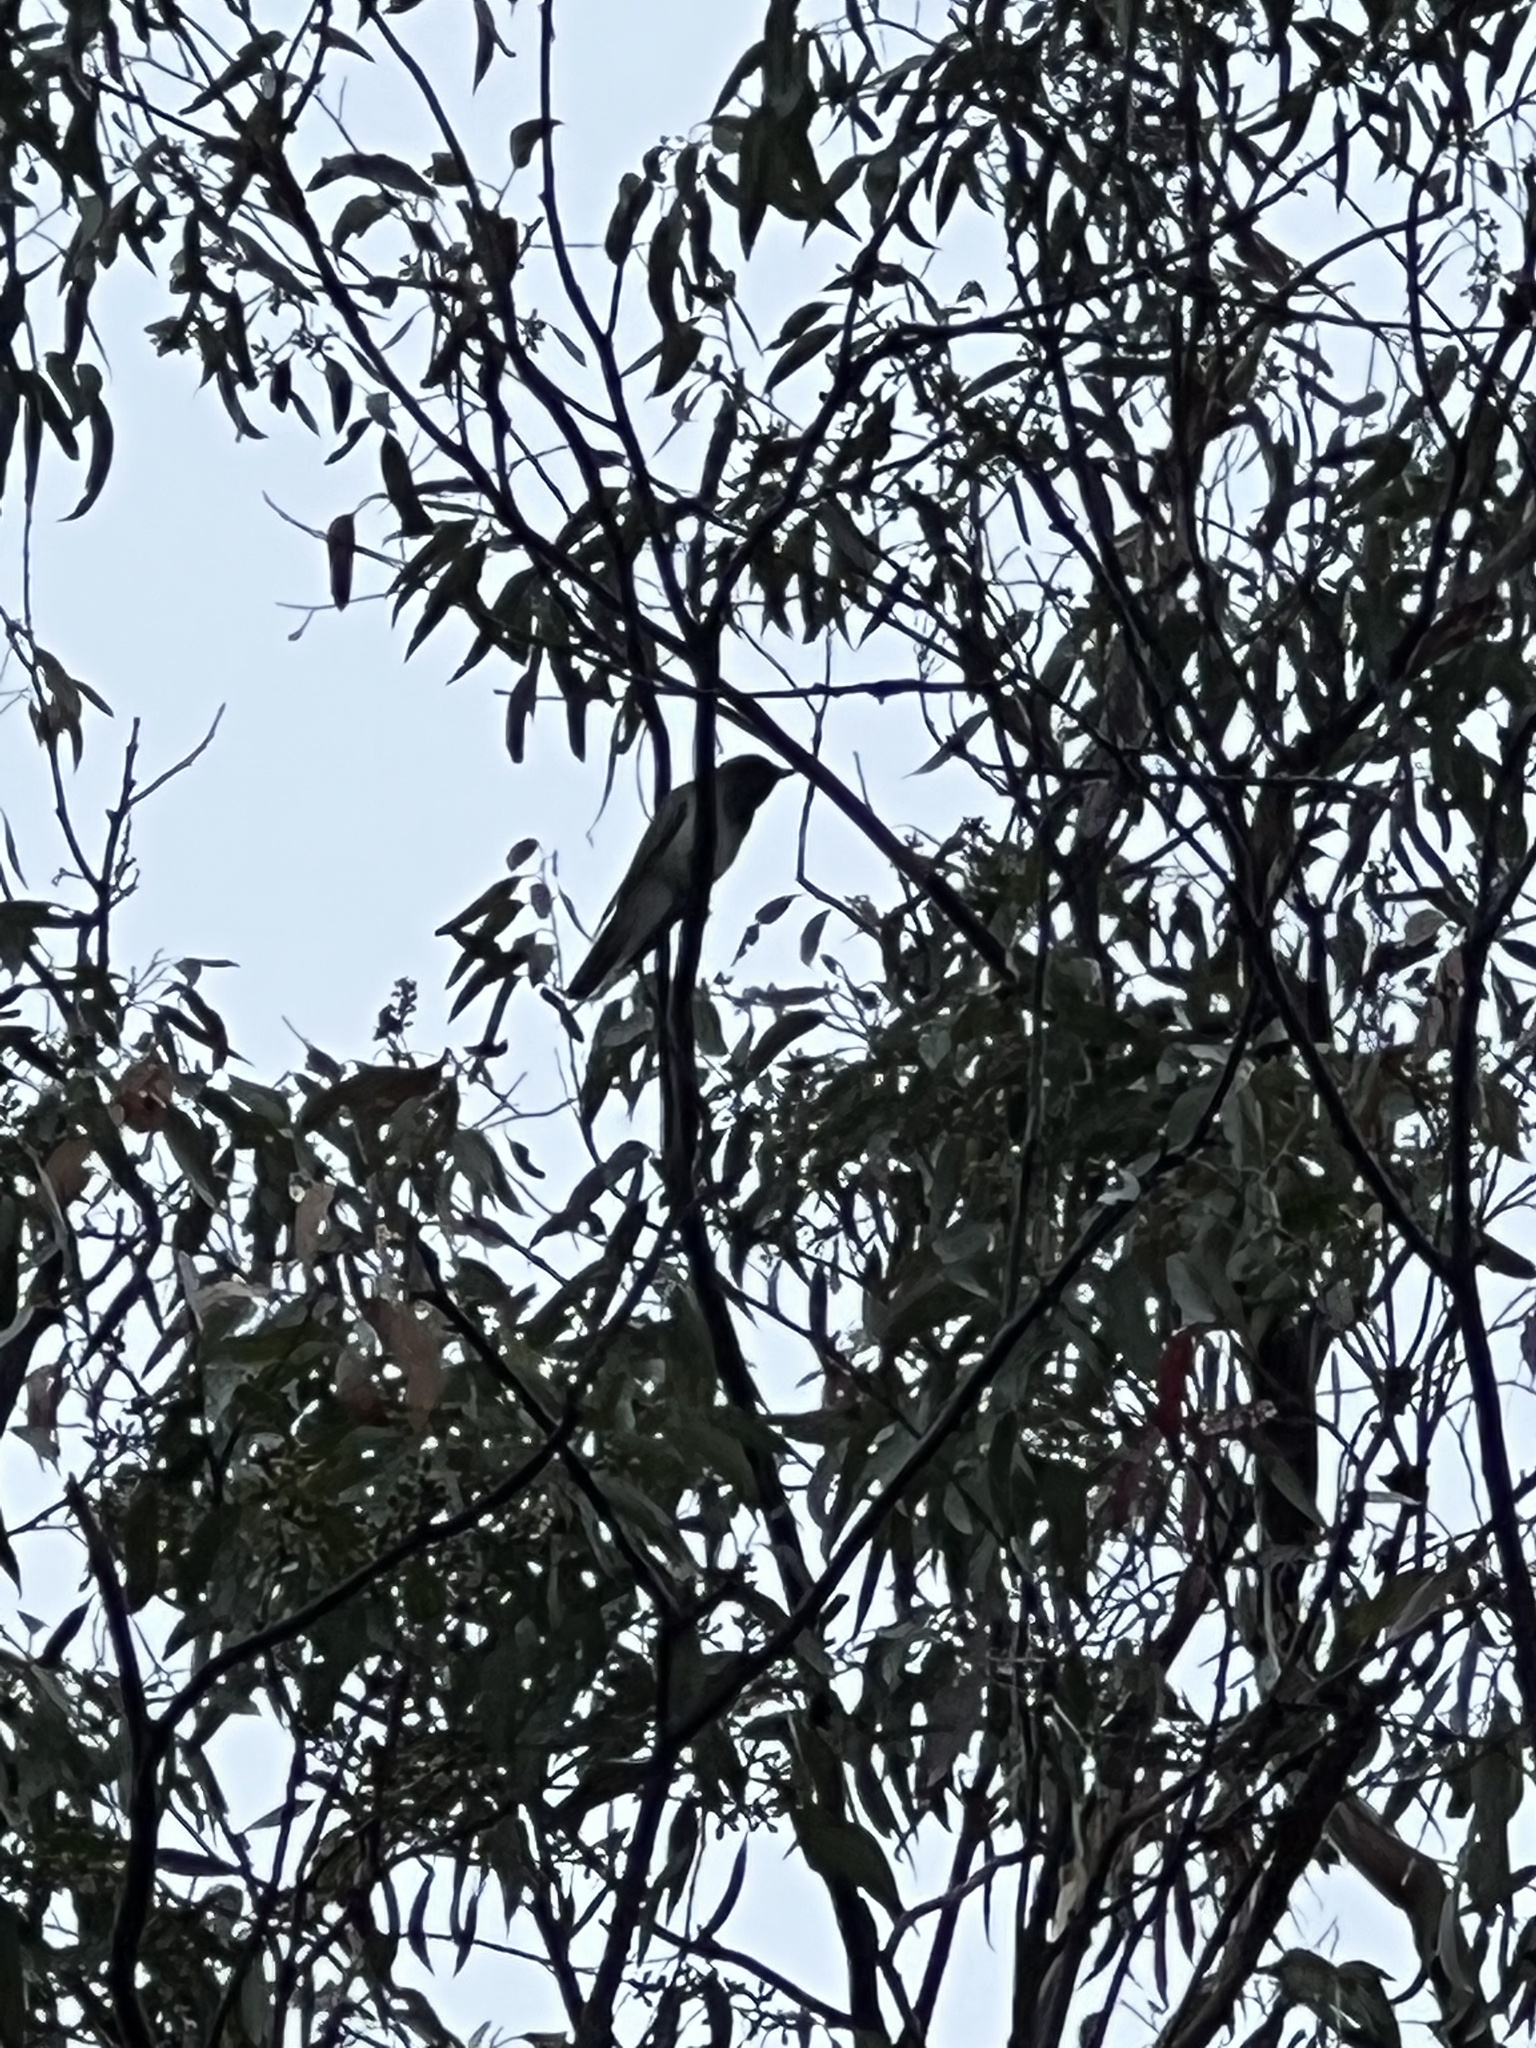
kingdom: Animalia
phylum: Chordata
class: Aves
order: Passeriformes
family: Campephagidae
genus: Coracina
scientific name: Coracina novaehollandiae
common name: Black-faced cuckooshrike
